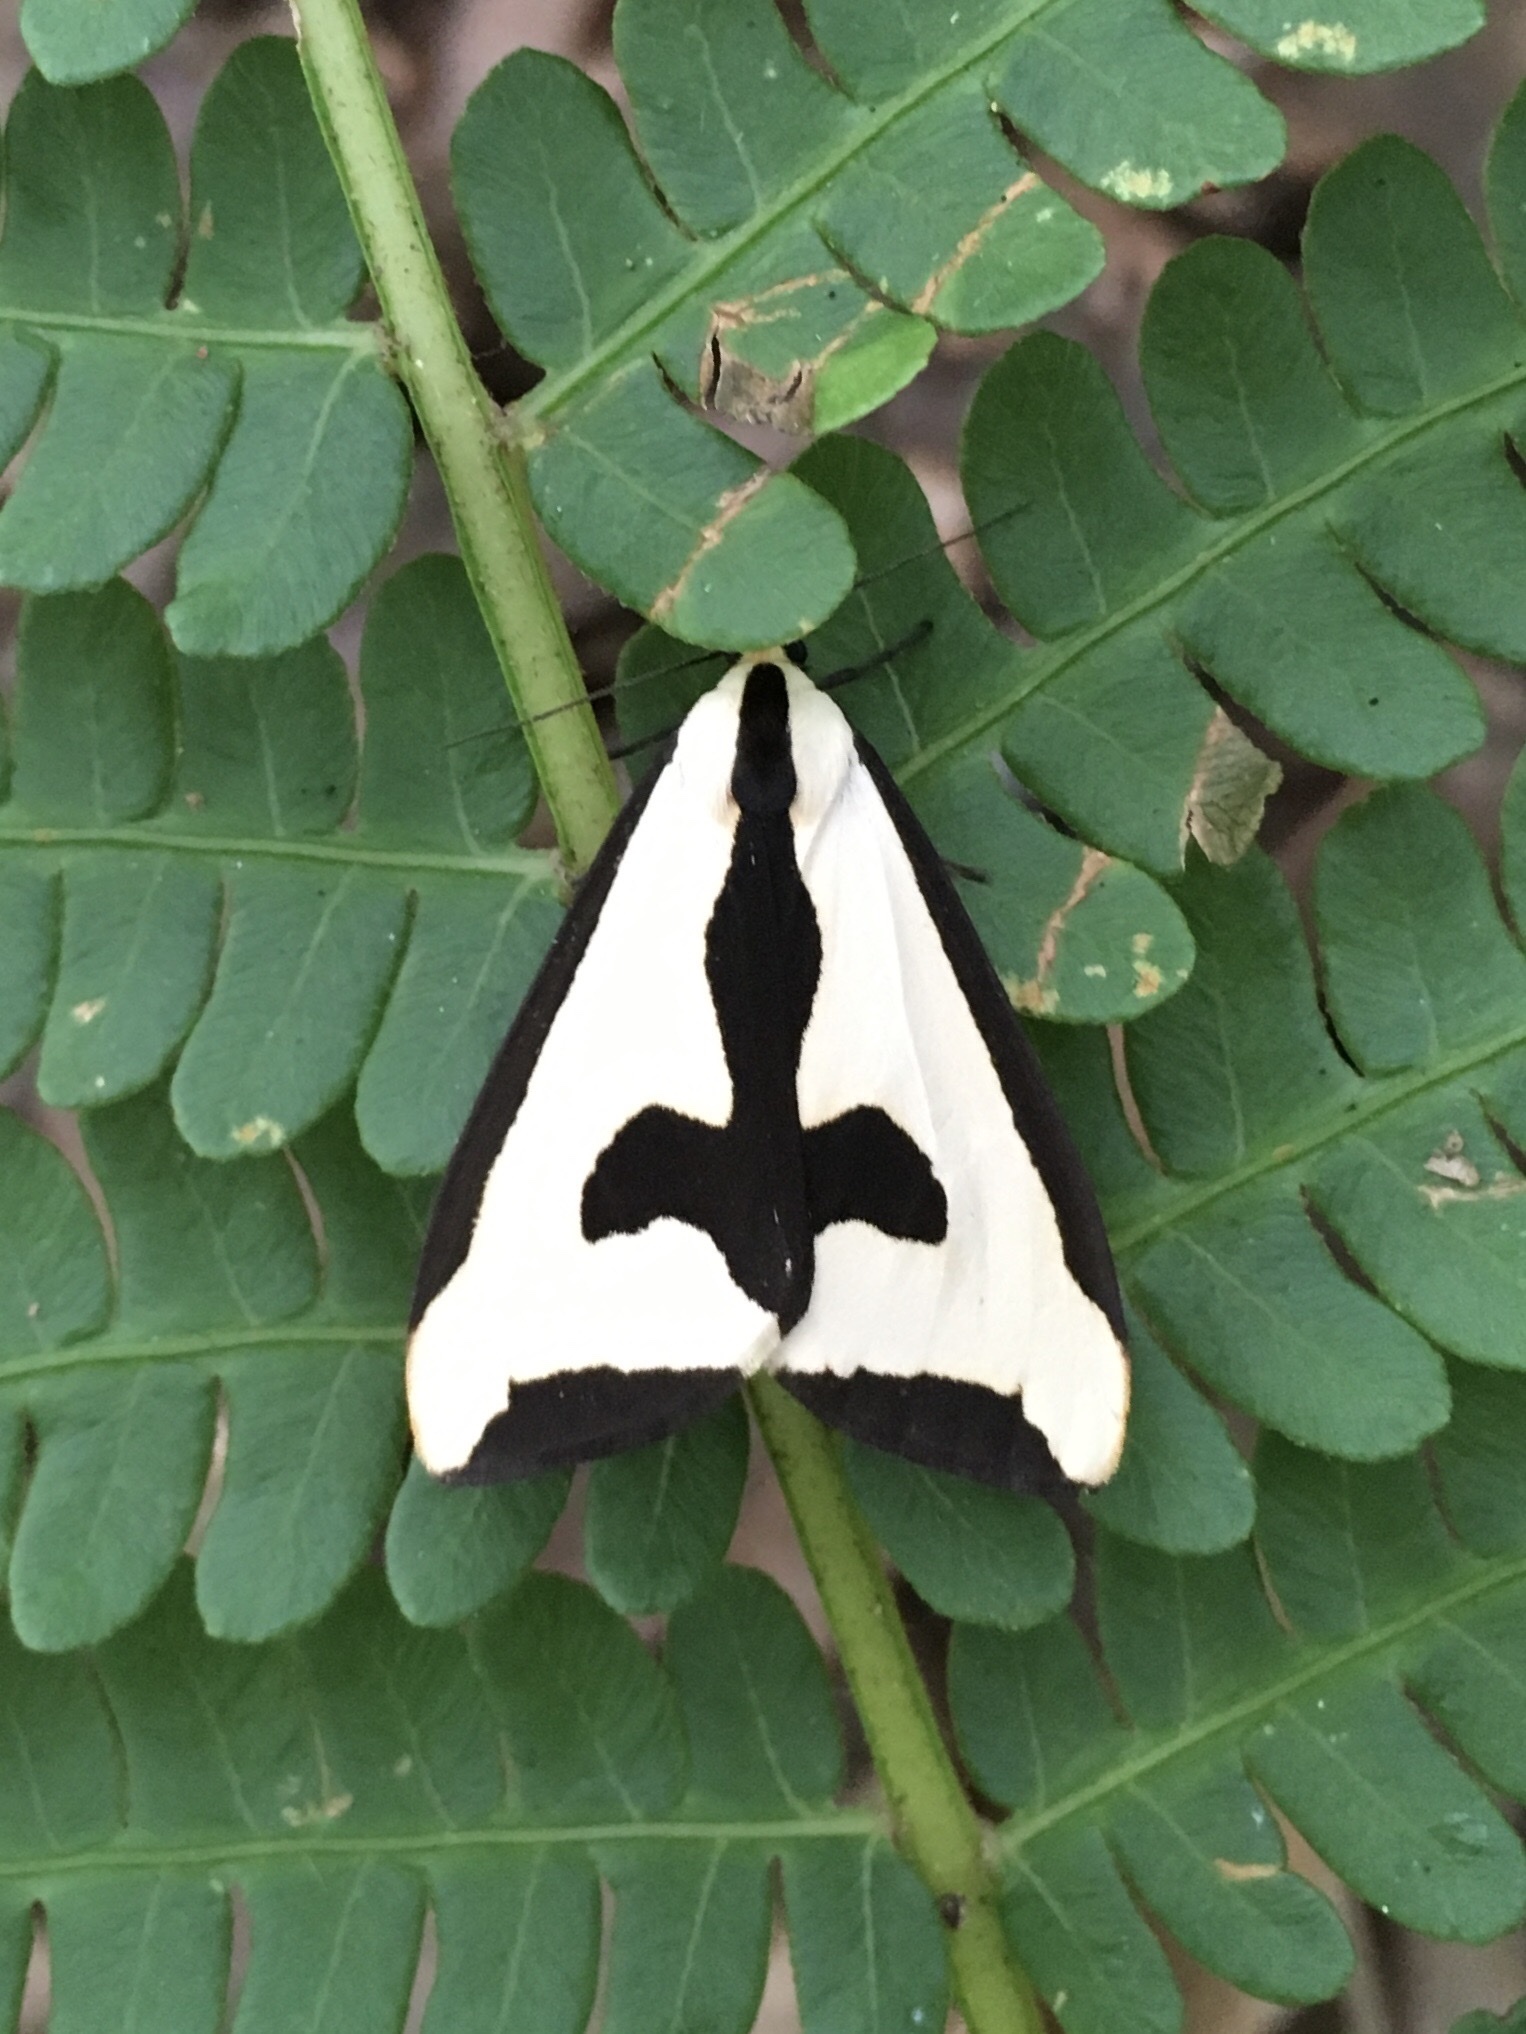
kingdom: Animalia
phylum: Arthropoda
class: Insecta
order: Lepidoptera
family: Erebidae
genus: Haploa
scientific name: Haploa clymene
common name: Clymene moth
